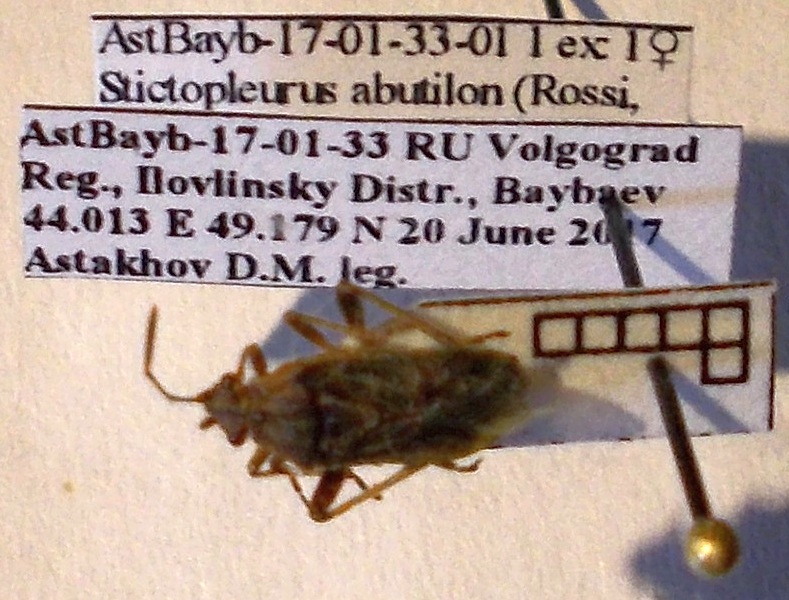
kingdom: Animalia
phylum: Arthropoda
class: Insecta
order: Hemiptera
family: Rhopalidae
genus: Stictopleurus
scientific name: Stictopleurus abutilon
